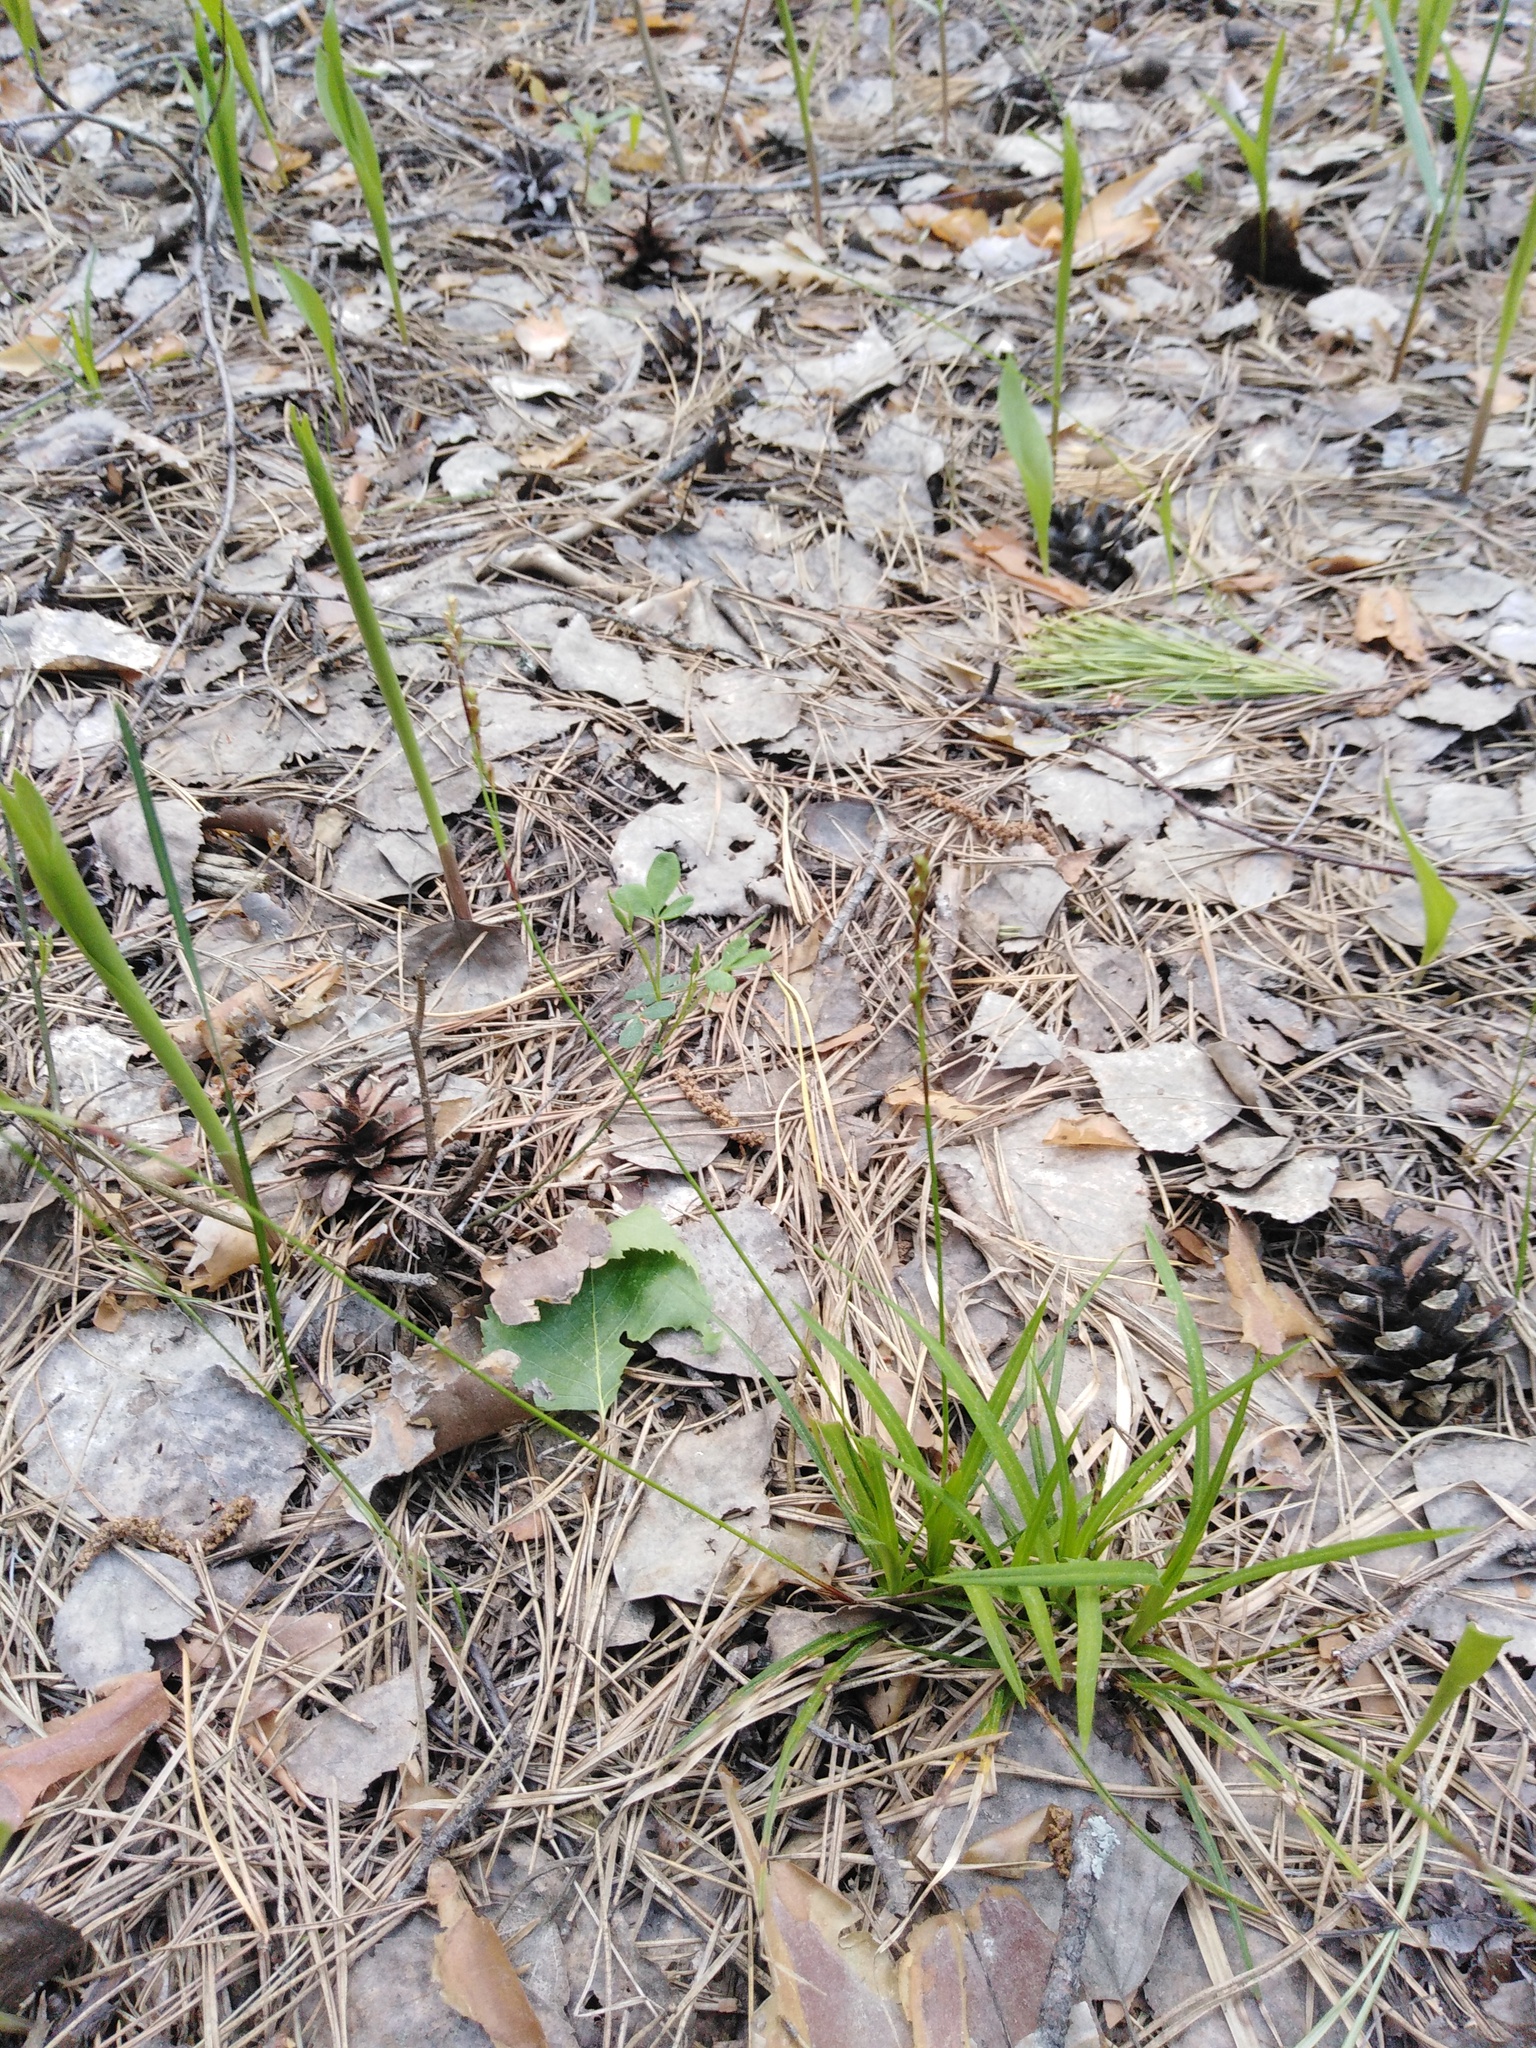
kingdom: Plantae
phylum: Tracheophyta
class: Liliopsida
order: Poales
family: Cyperaceae
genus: Carex
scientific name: Carex digitata
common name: Fingered sedge
